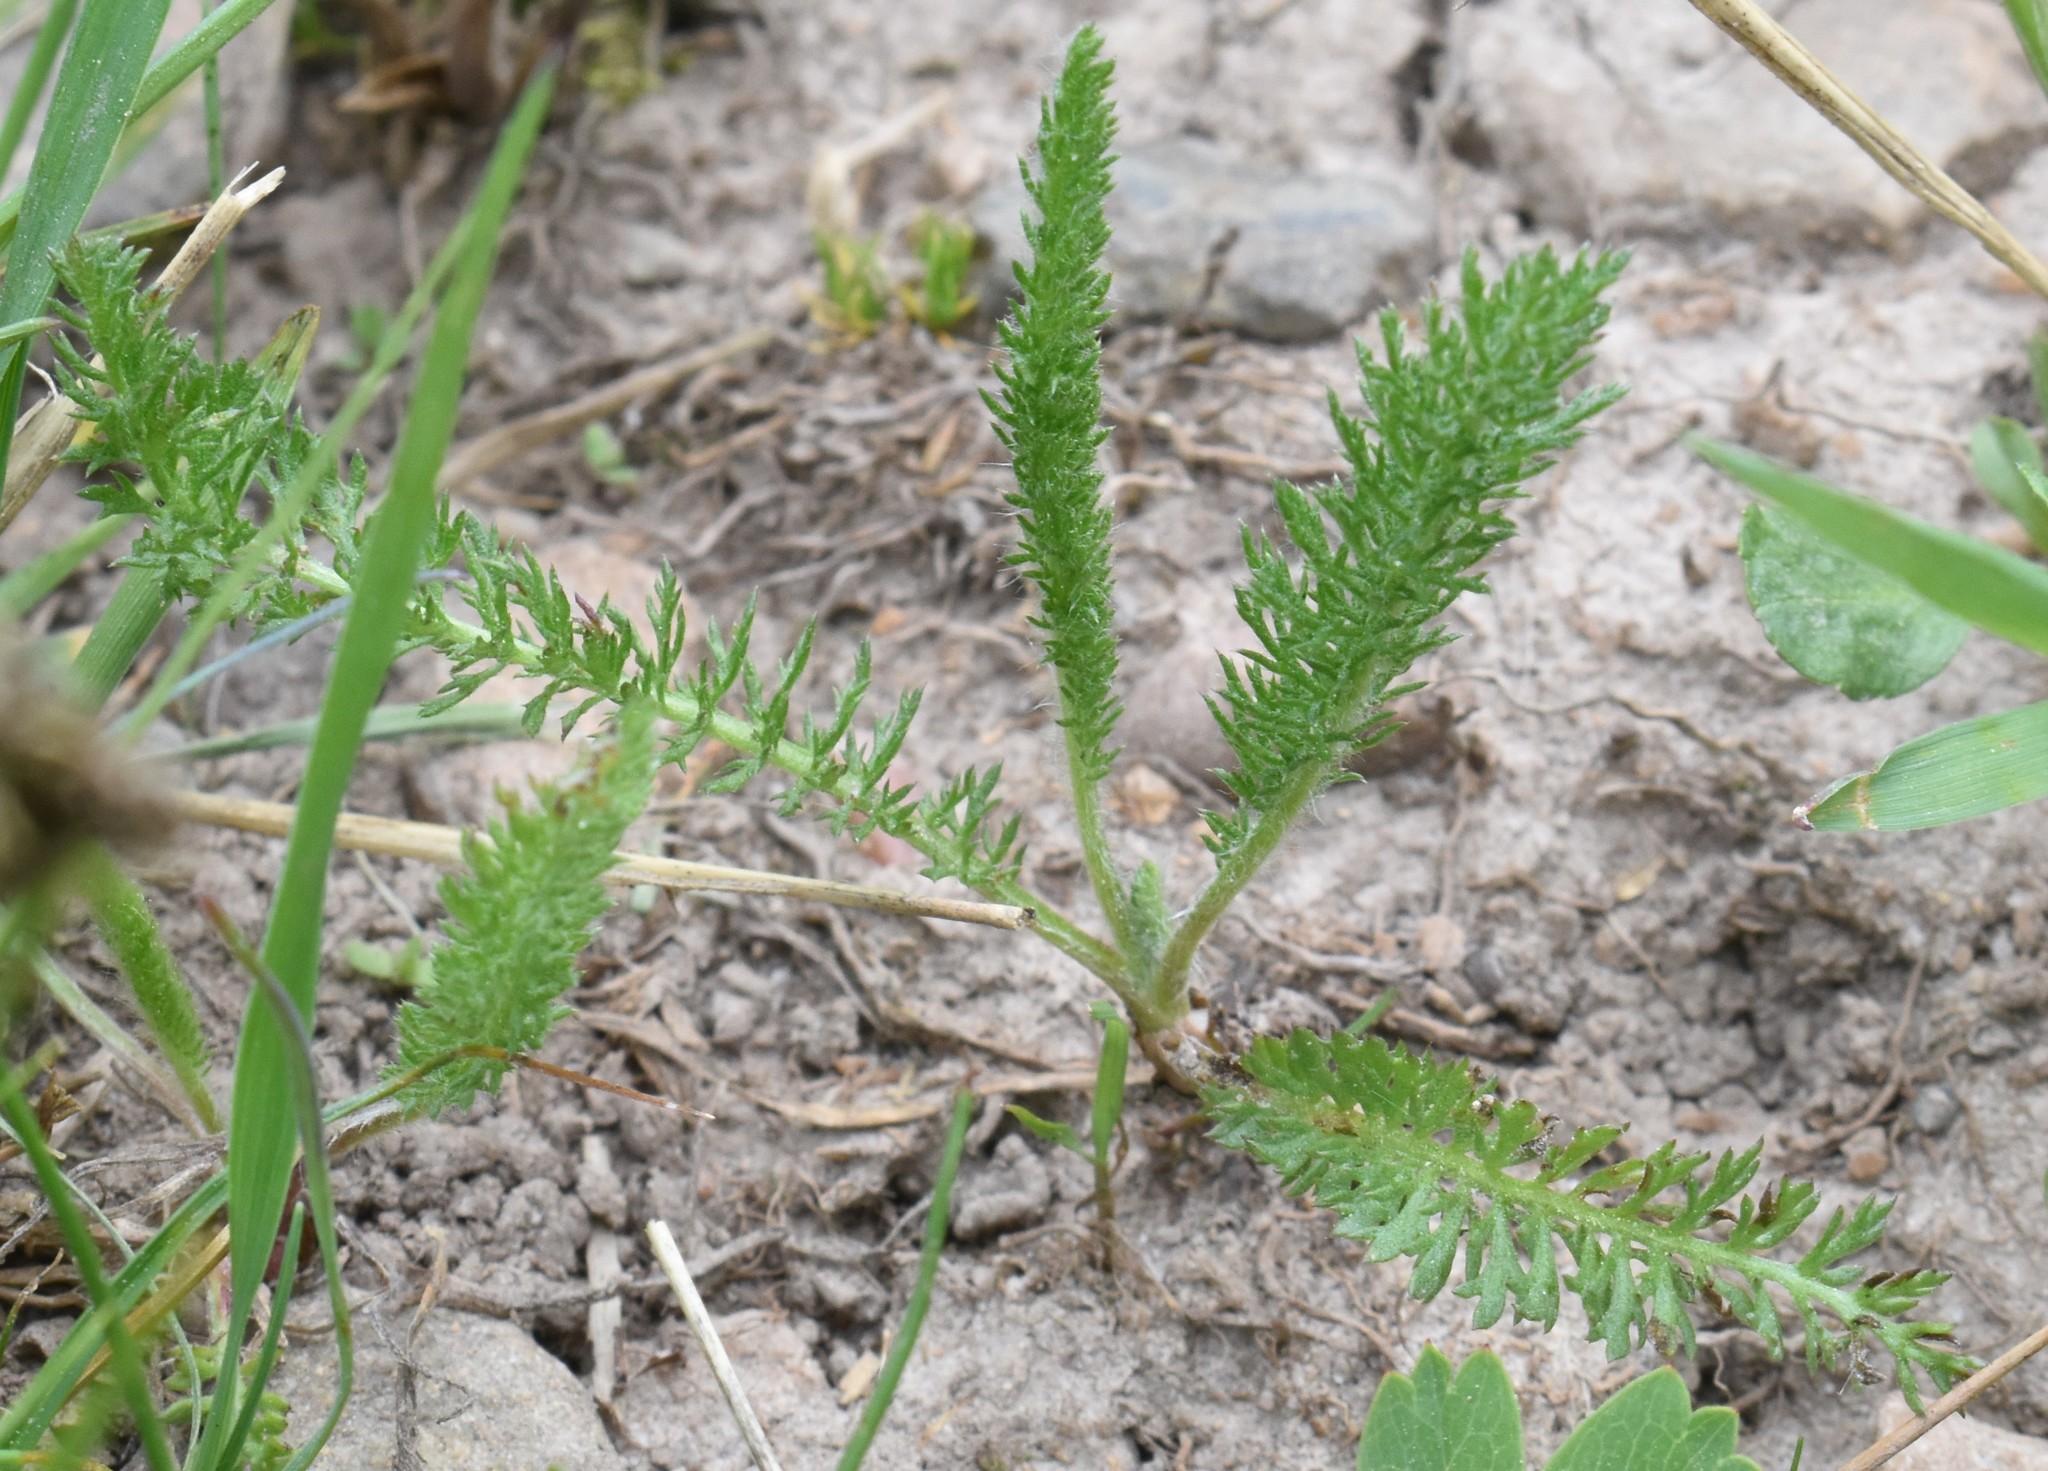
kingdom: Plantae
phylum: Tracheophyta
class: Magnoliopsida
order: Asterales
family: Asteraceae
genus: Achillea
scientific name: Achillea millefolium
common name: Yarrow
